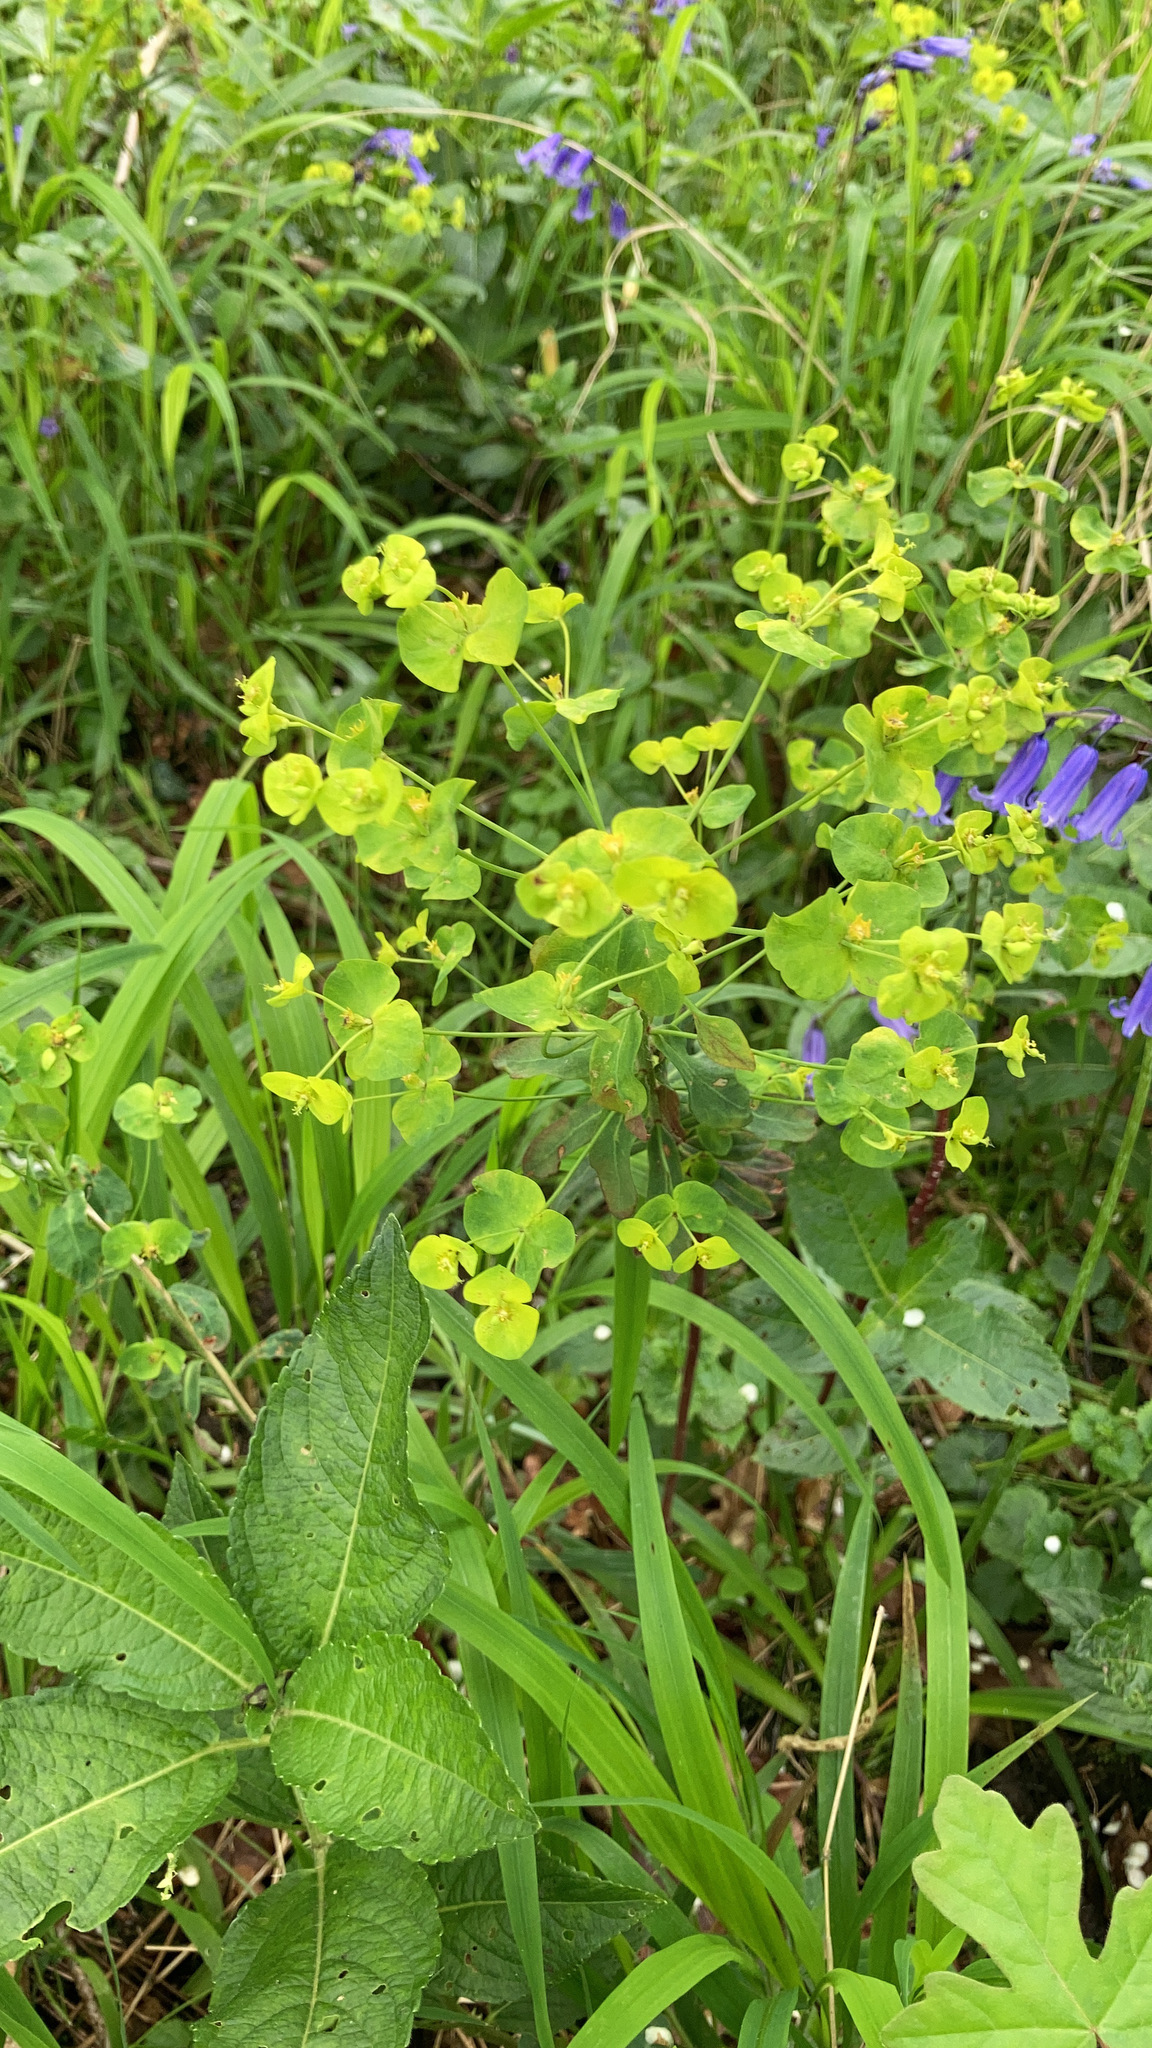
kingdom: Plantae
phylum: Tracheophyta
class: Magnoliopsida
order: Malpighiales
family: Euphorbiaceae
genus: Euphorbia
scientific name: Euphorbia amygdaloides
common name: Wood spurge
